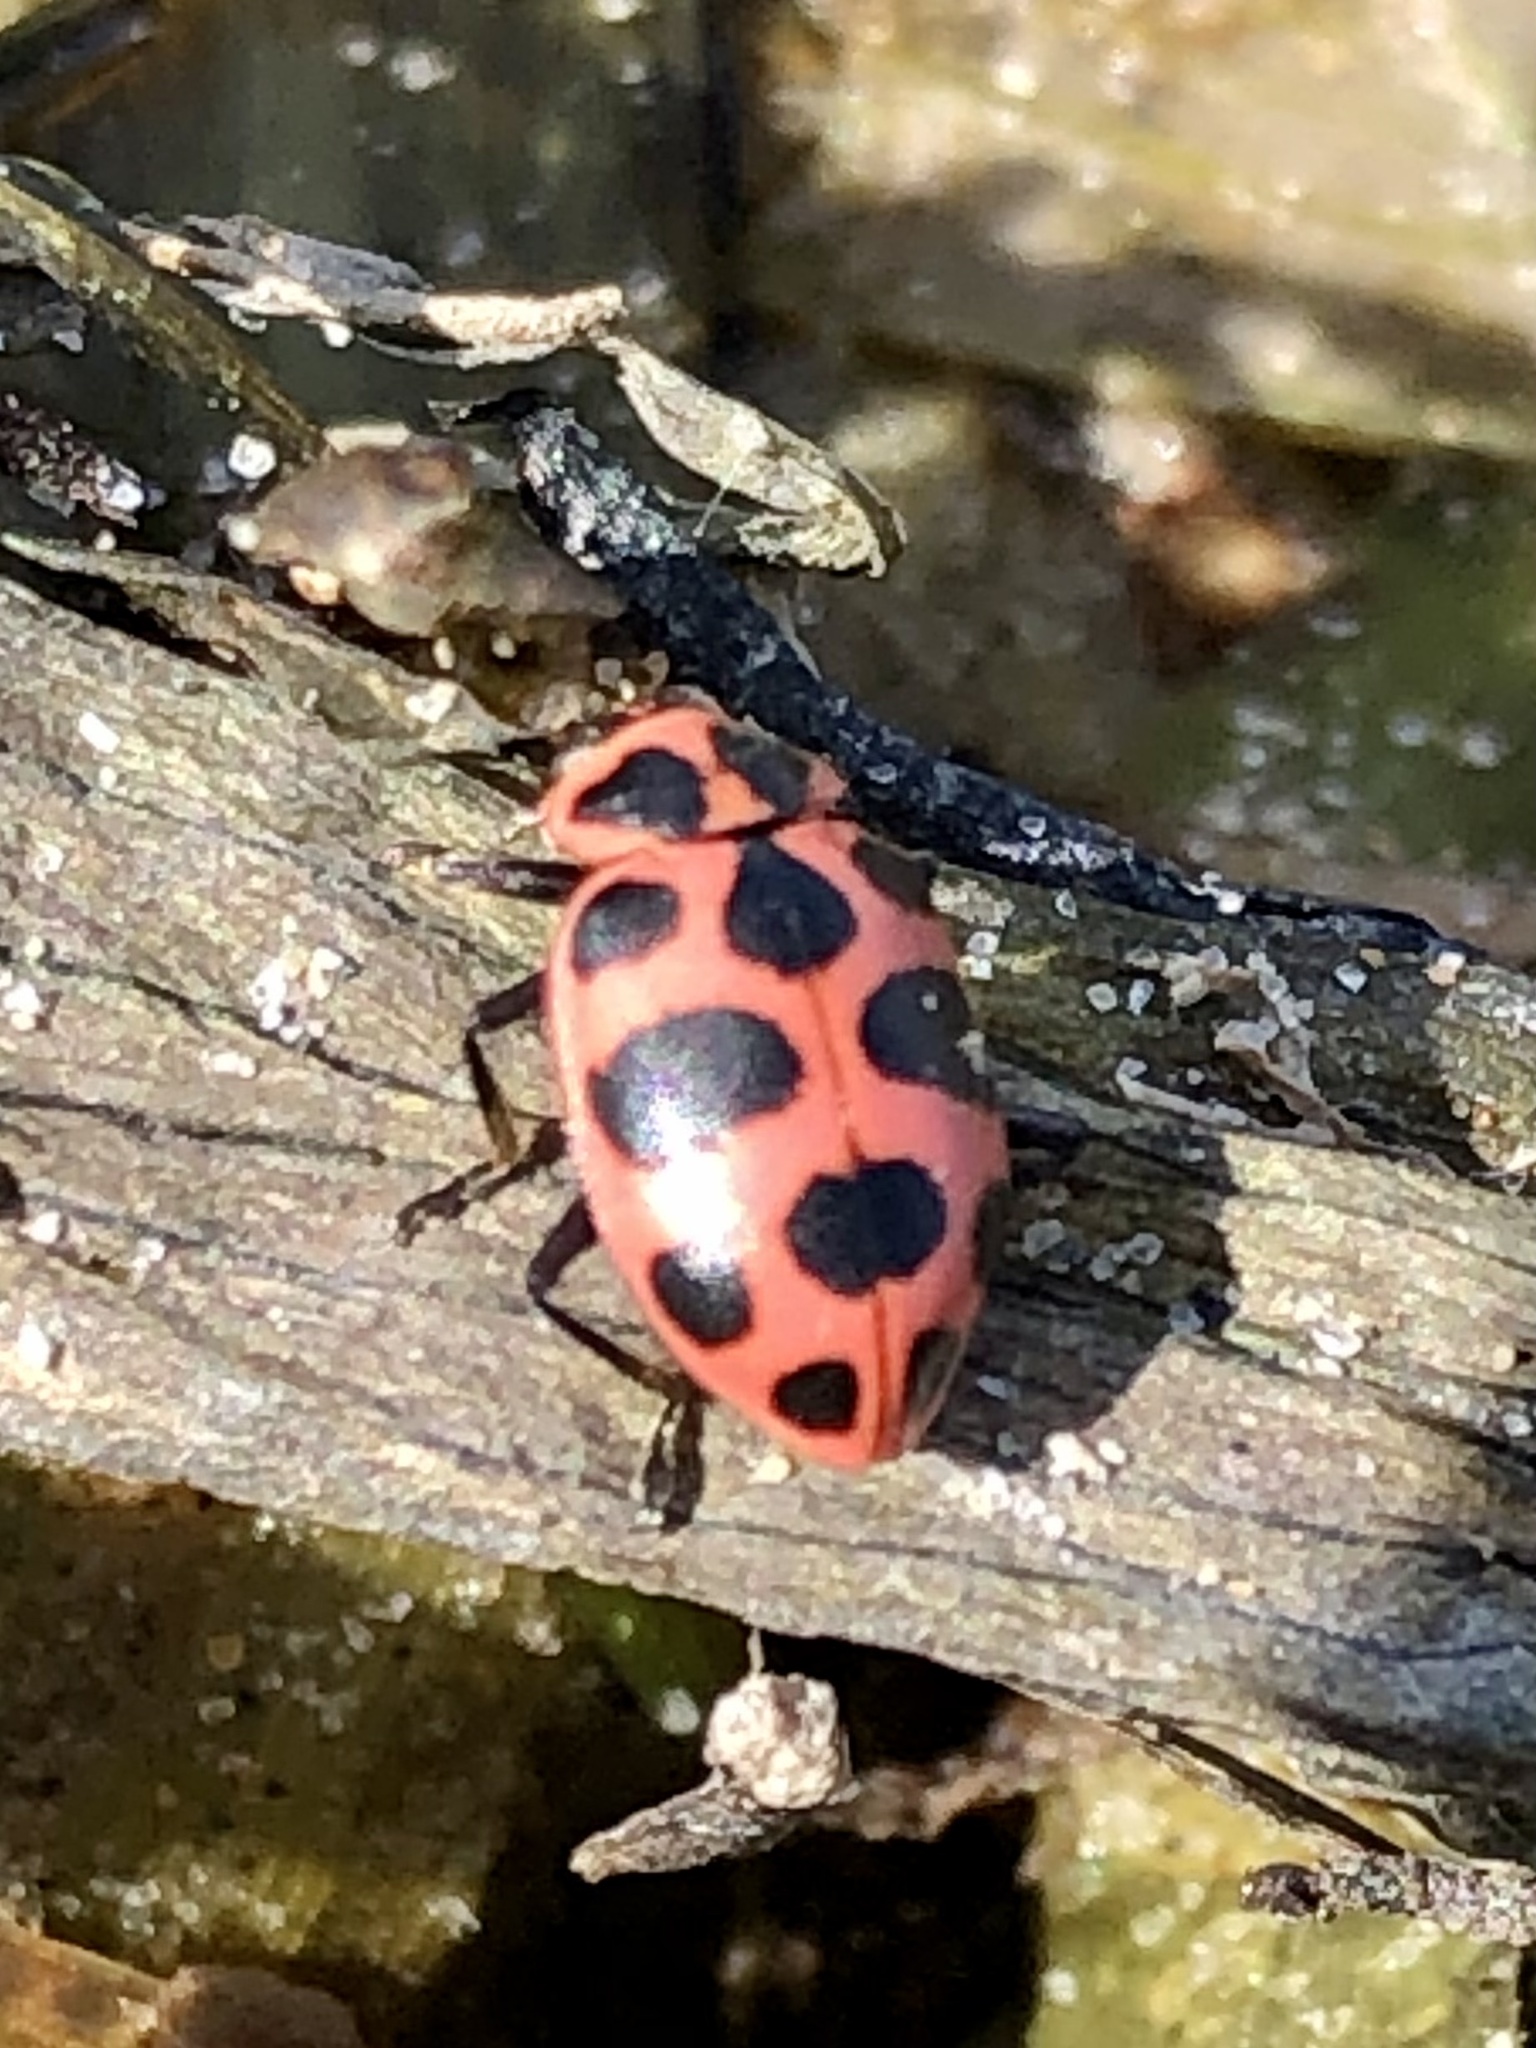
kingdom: Animalia
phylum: Arthropoda
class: Insecta
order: Coleoptera
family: Coccinellidae
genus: Coleomegilla
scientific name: Coleomegilla maculata
